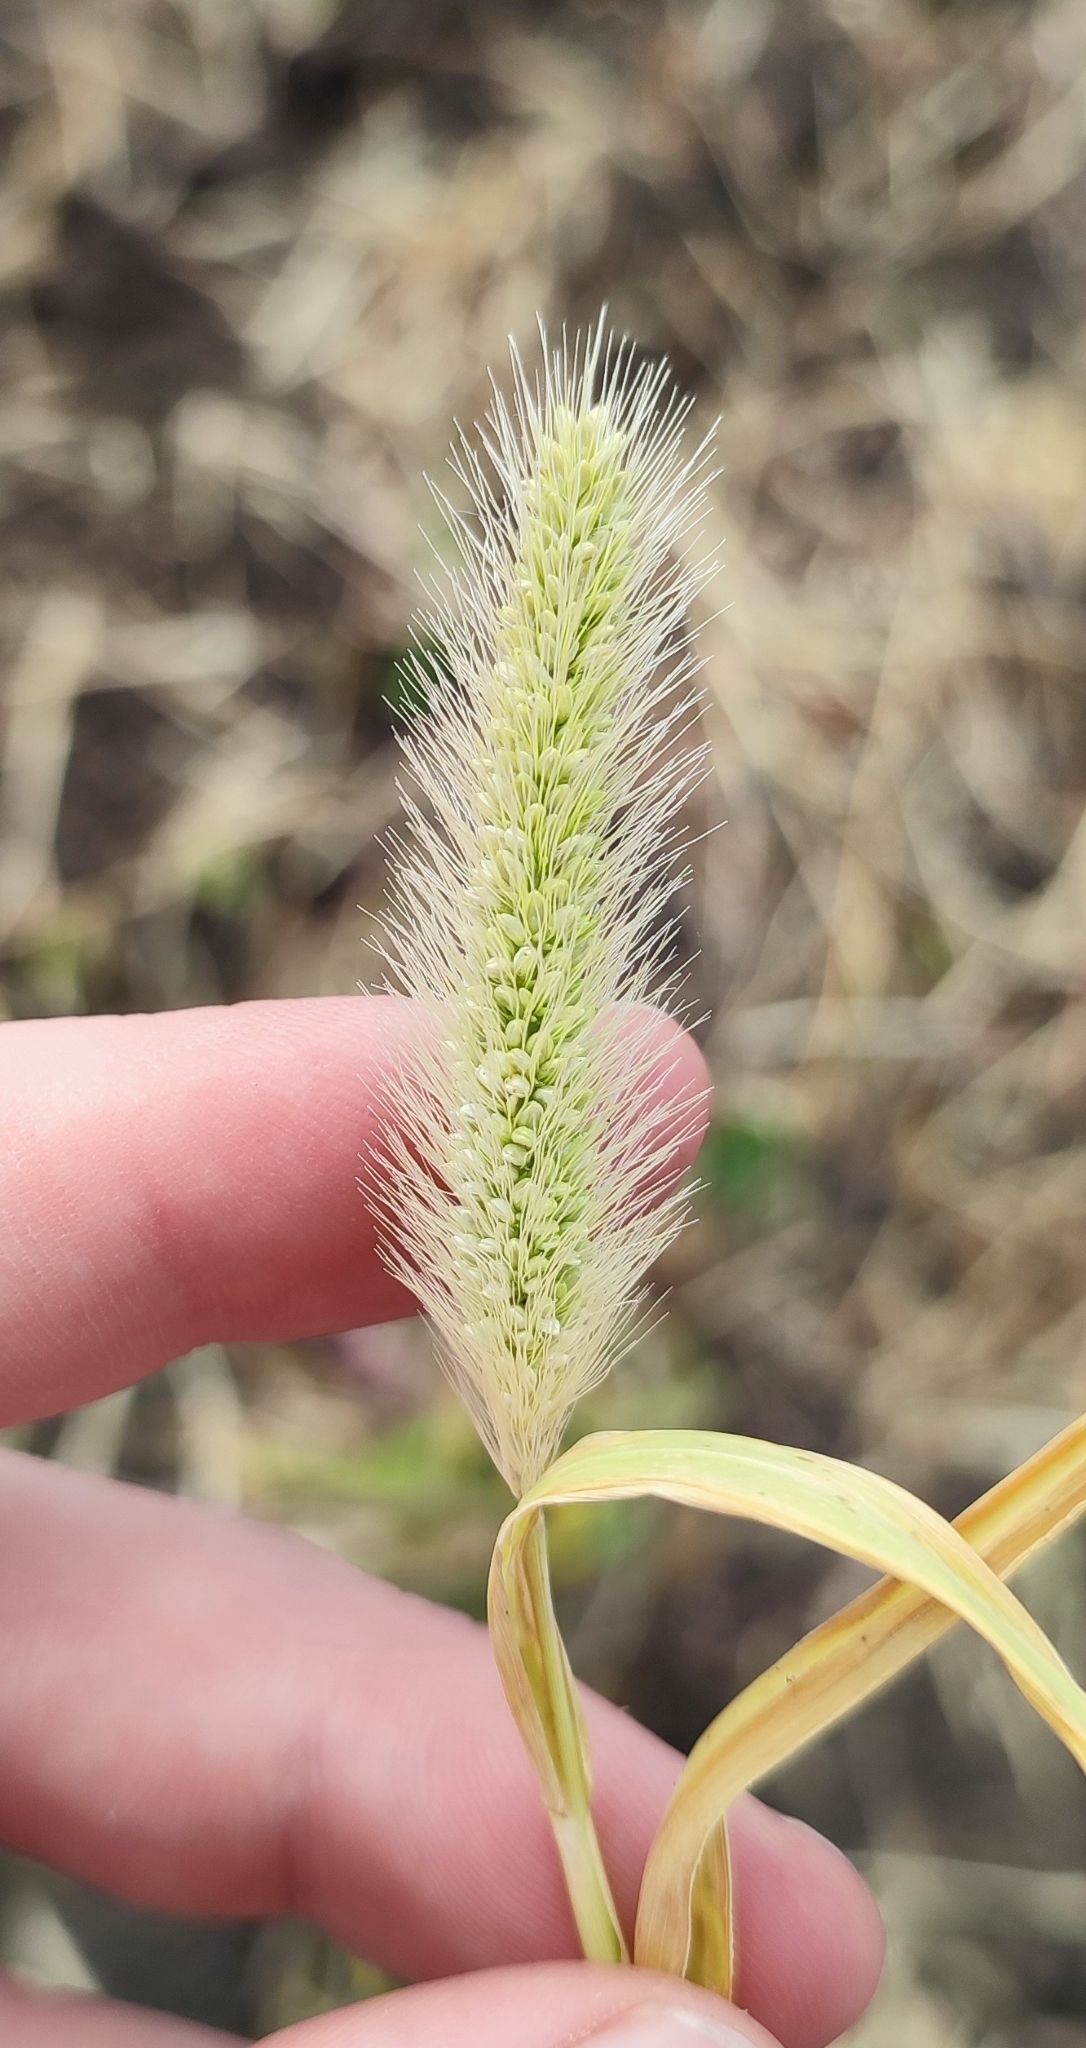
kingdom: Plantae
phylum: Tracheophyta
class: Liliopsida
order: Poales
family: Poaceae
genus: Setaria
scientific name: Setaria viridis
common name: Green bristlegrass
